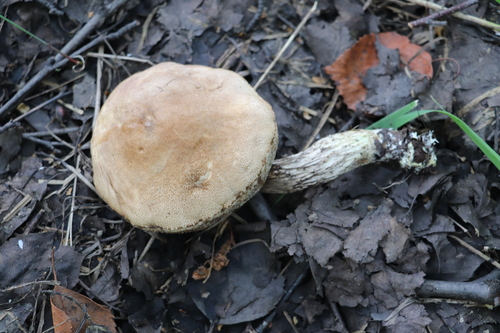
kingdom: Fungi
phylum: Basidiomycota
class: Agaricomycetes
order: Boletales
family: Boletaceae
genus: Leccinum
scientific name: Leccinum scabrum
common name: Blushing bolete
